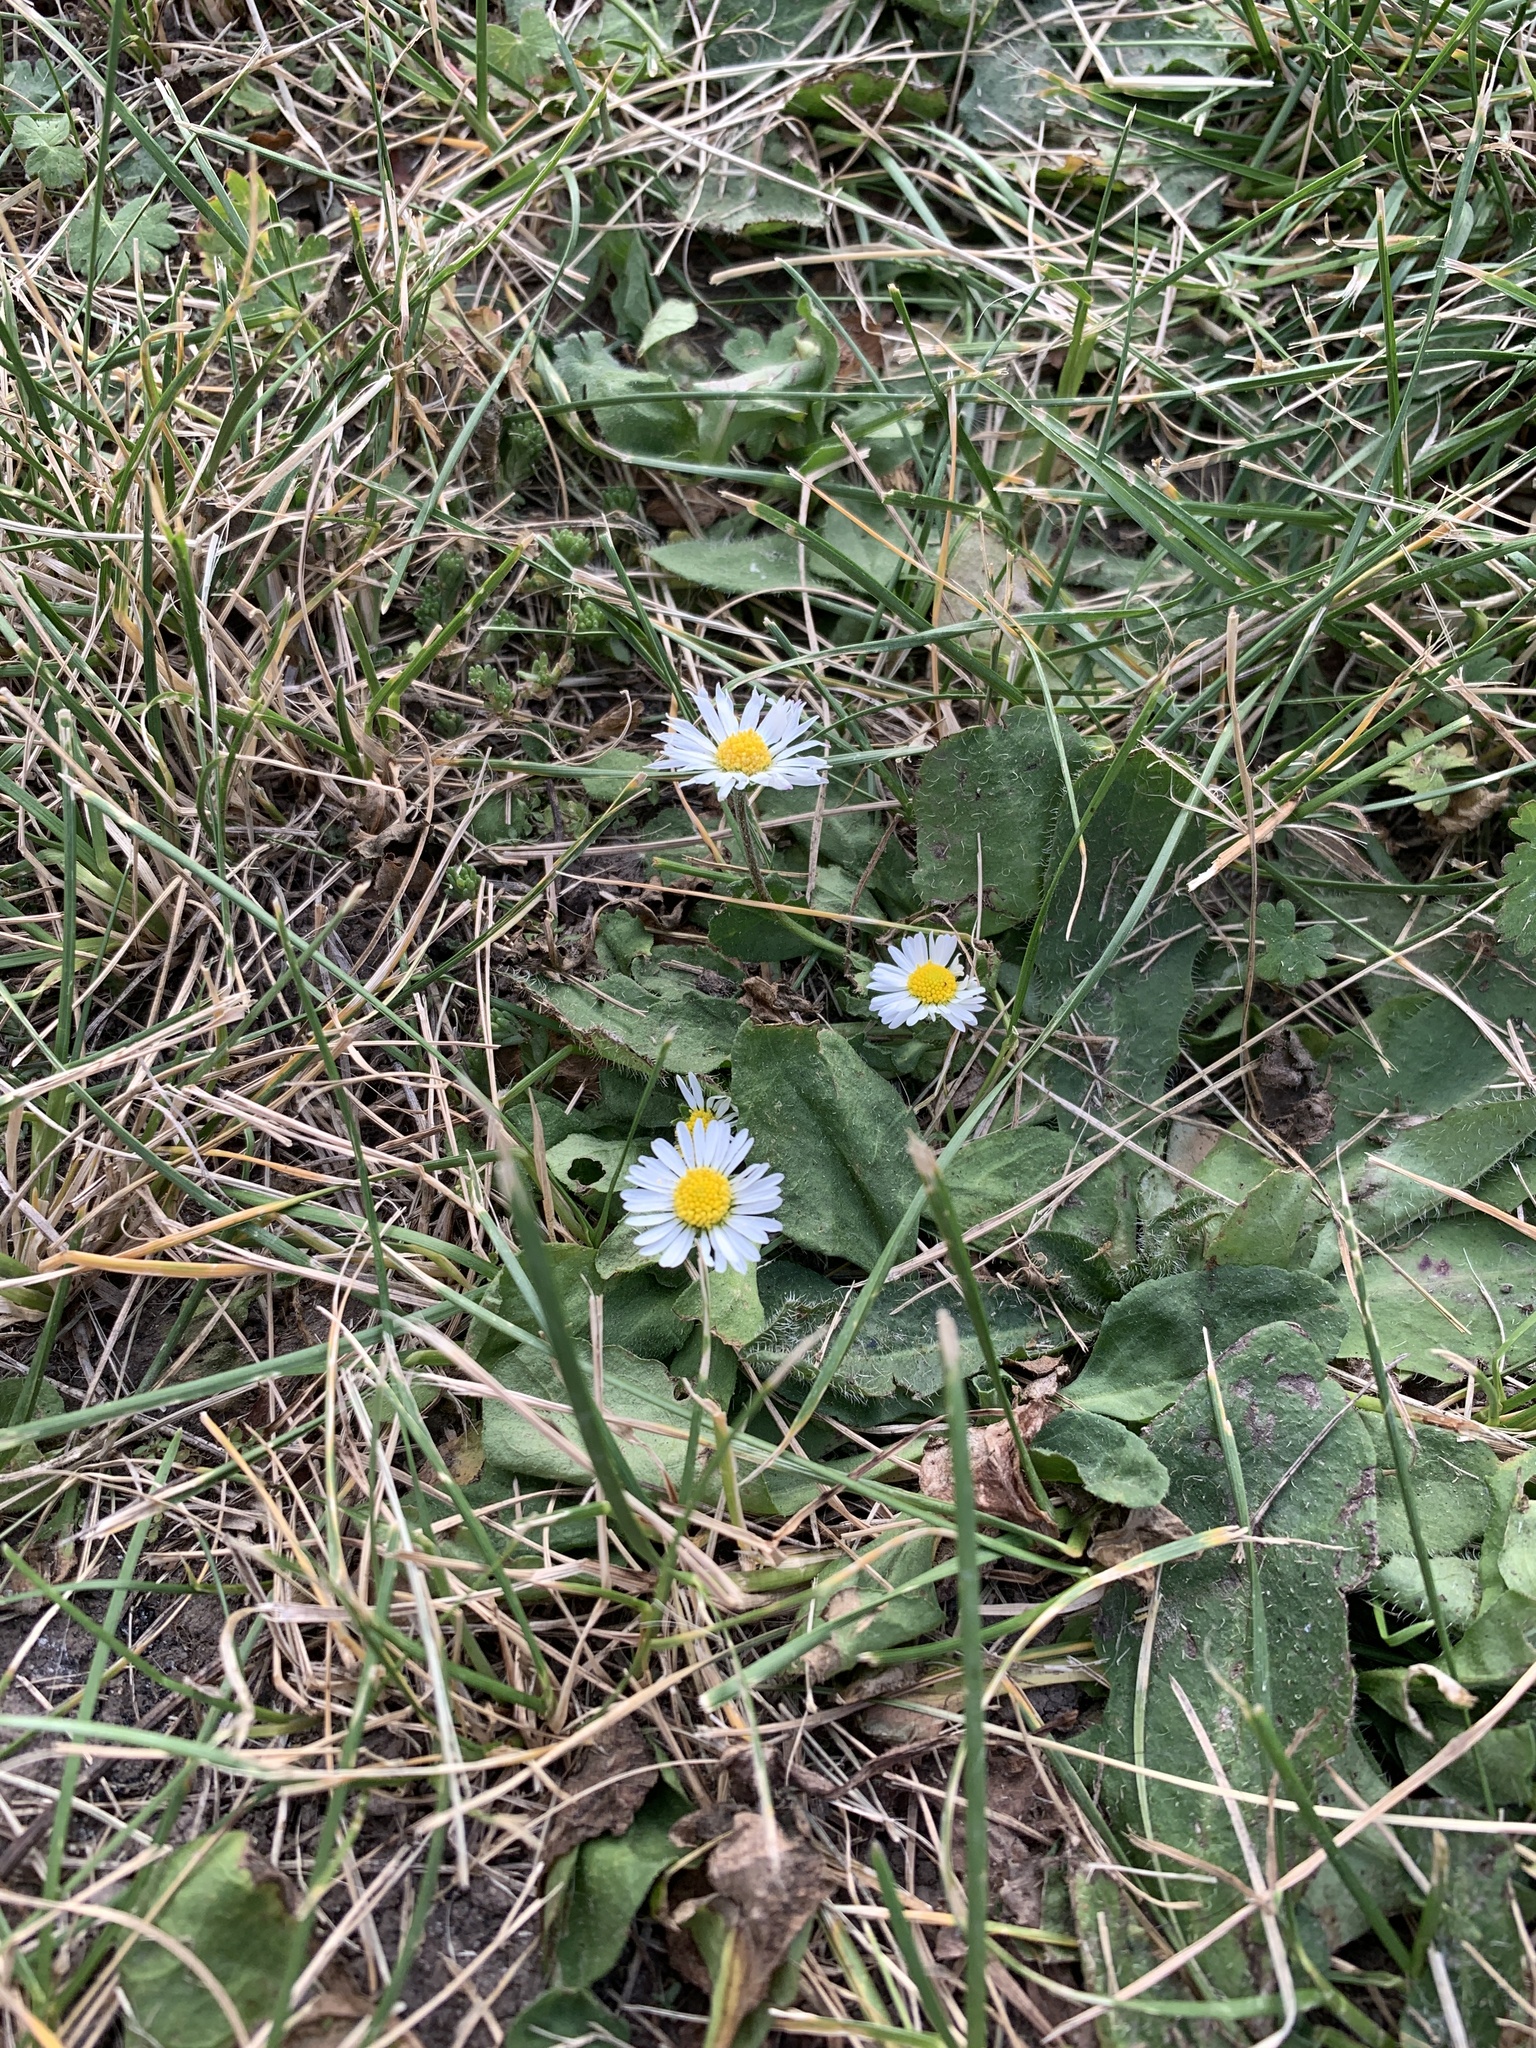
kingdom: Plantae
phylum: Tracheophyta
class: Magnoliopsida
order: Asterales
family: Asteraceae
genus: Bellis
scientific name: Bellis perennis
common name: Lawndaisy
